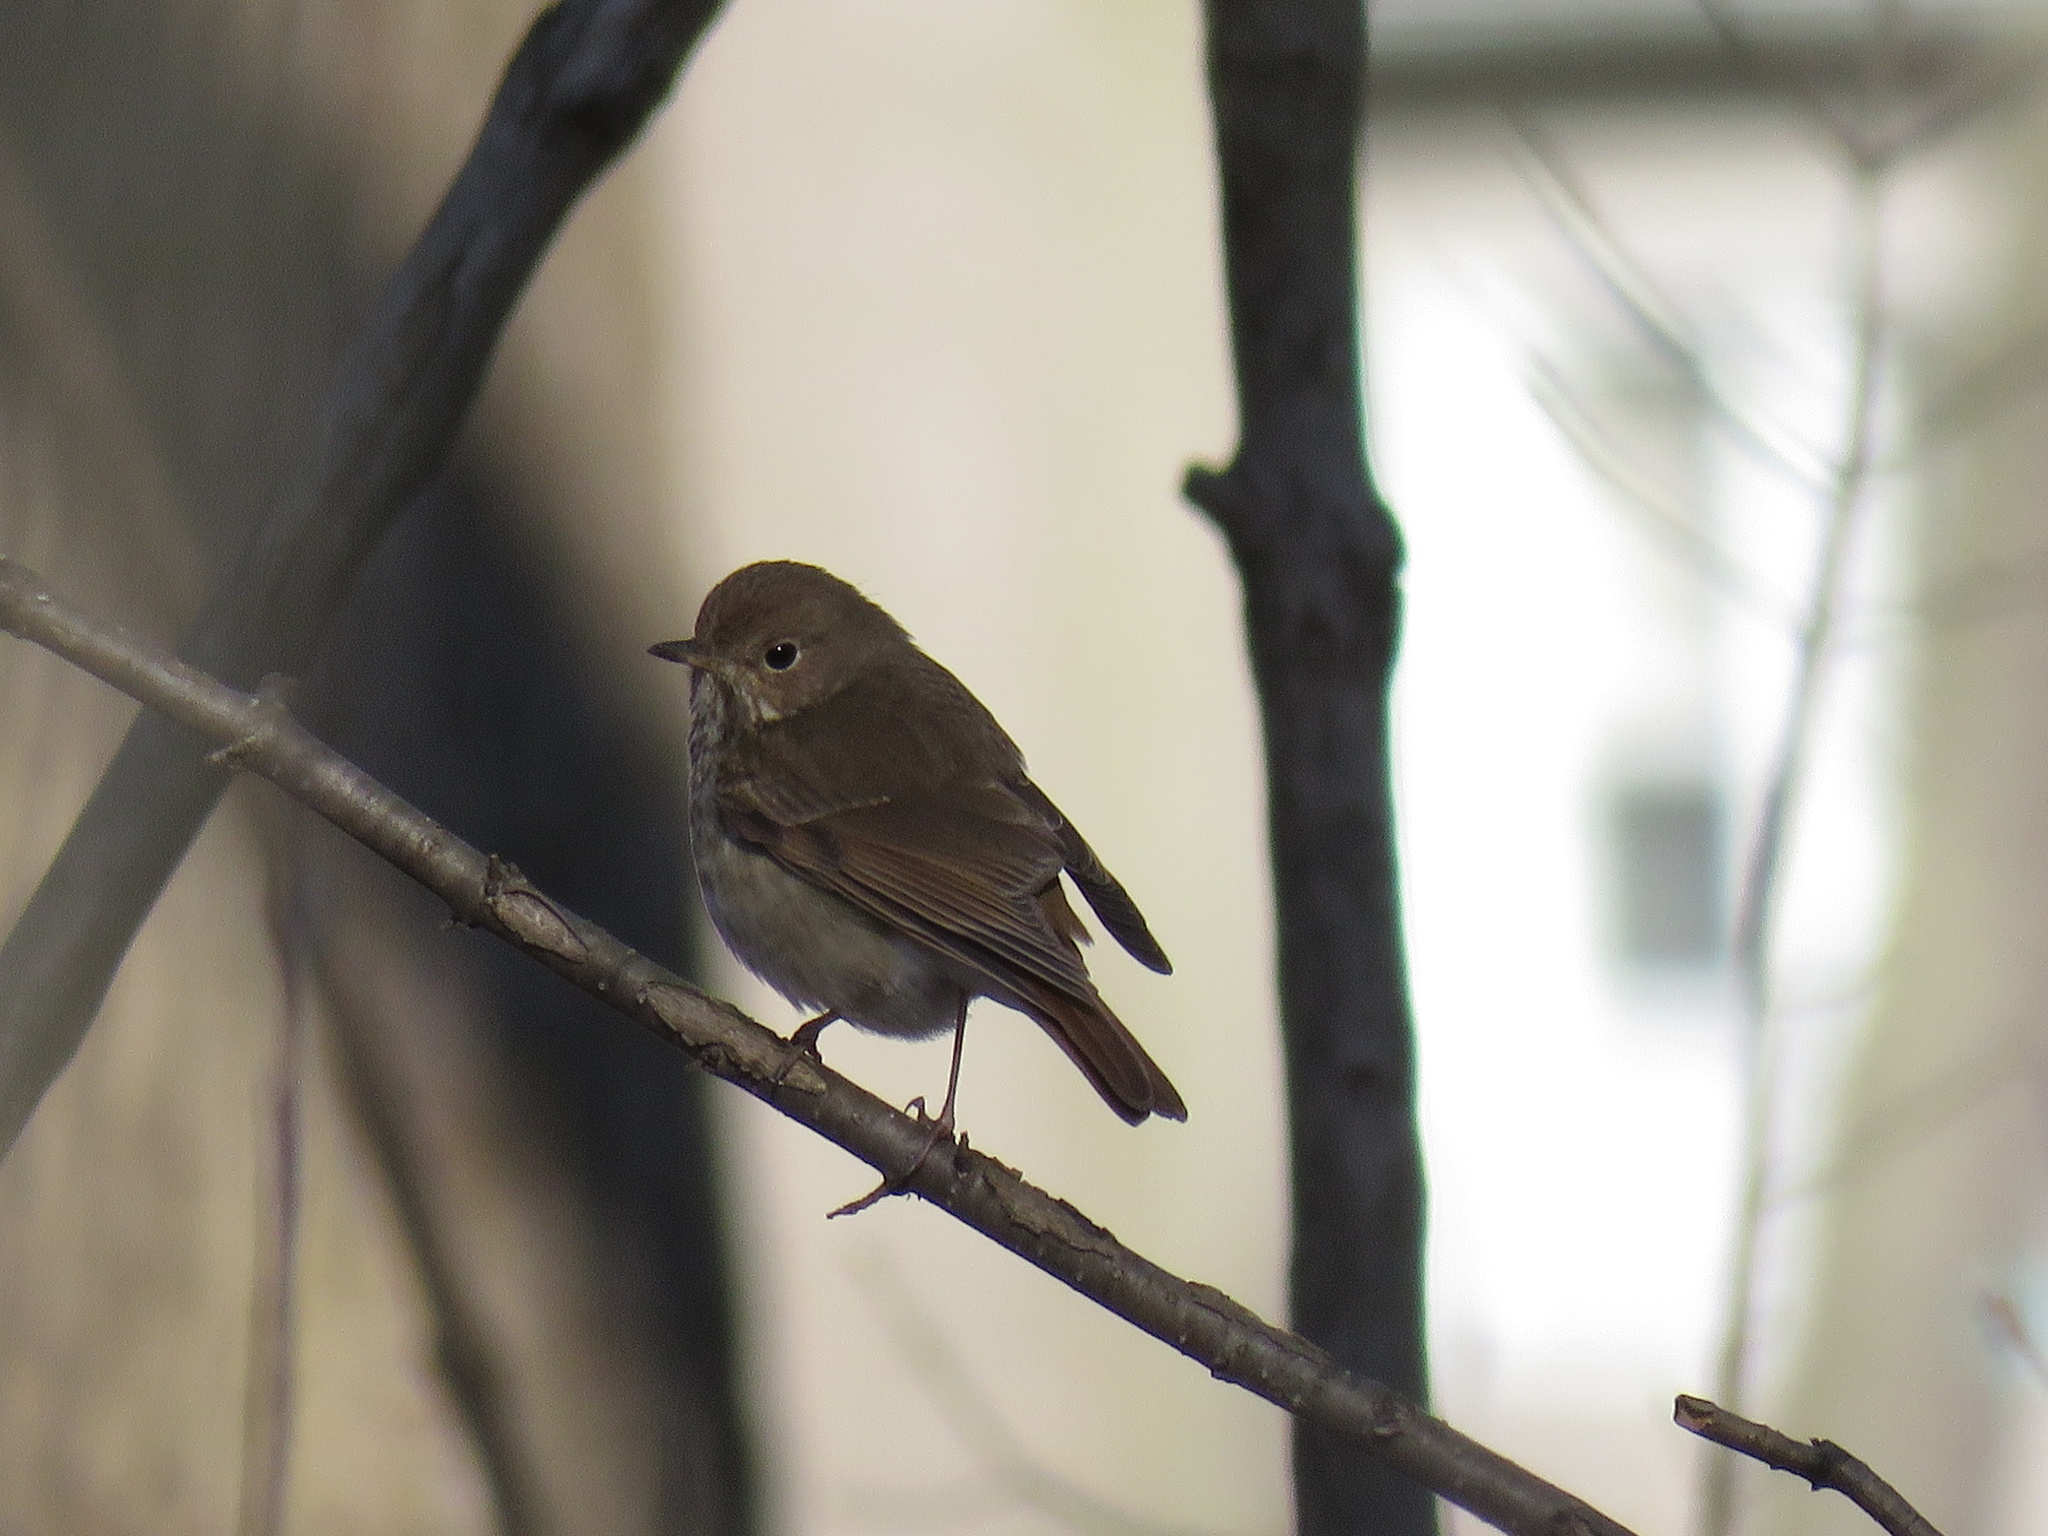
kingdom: Animalia
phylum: Chordata
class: Aves
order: Passeriformes
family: Turdidae
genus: Catharus
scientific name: Catharus guttatus
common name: Hermit thrush
